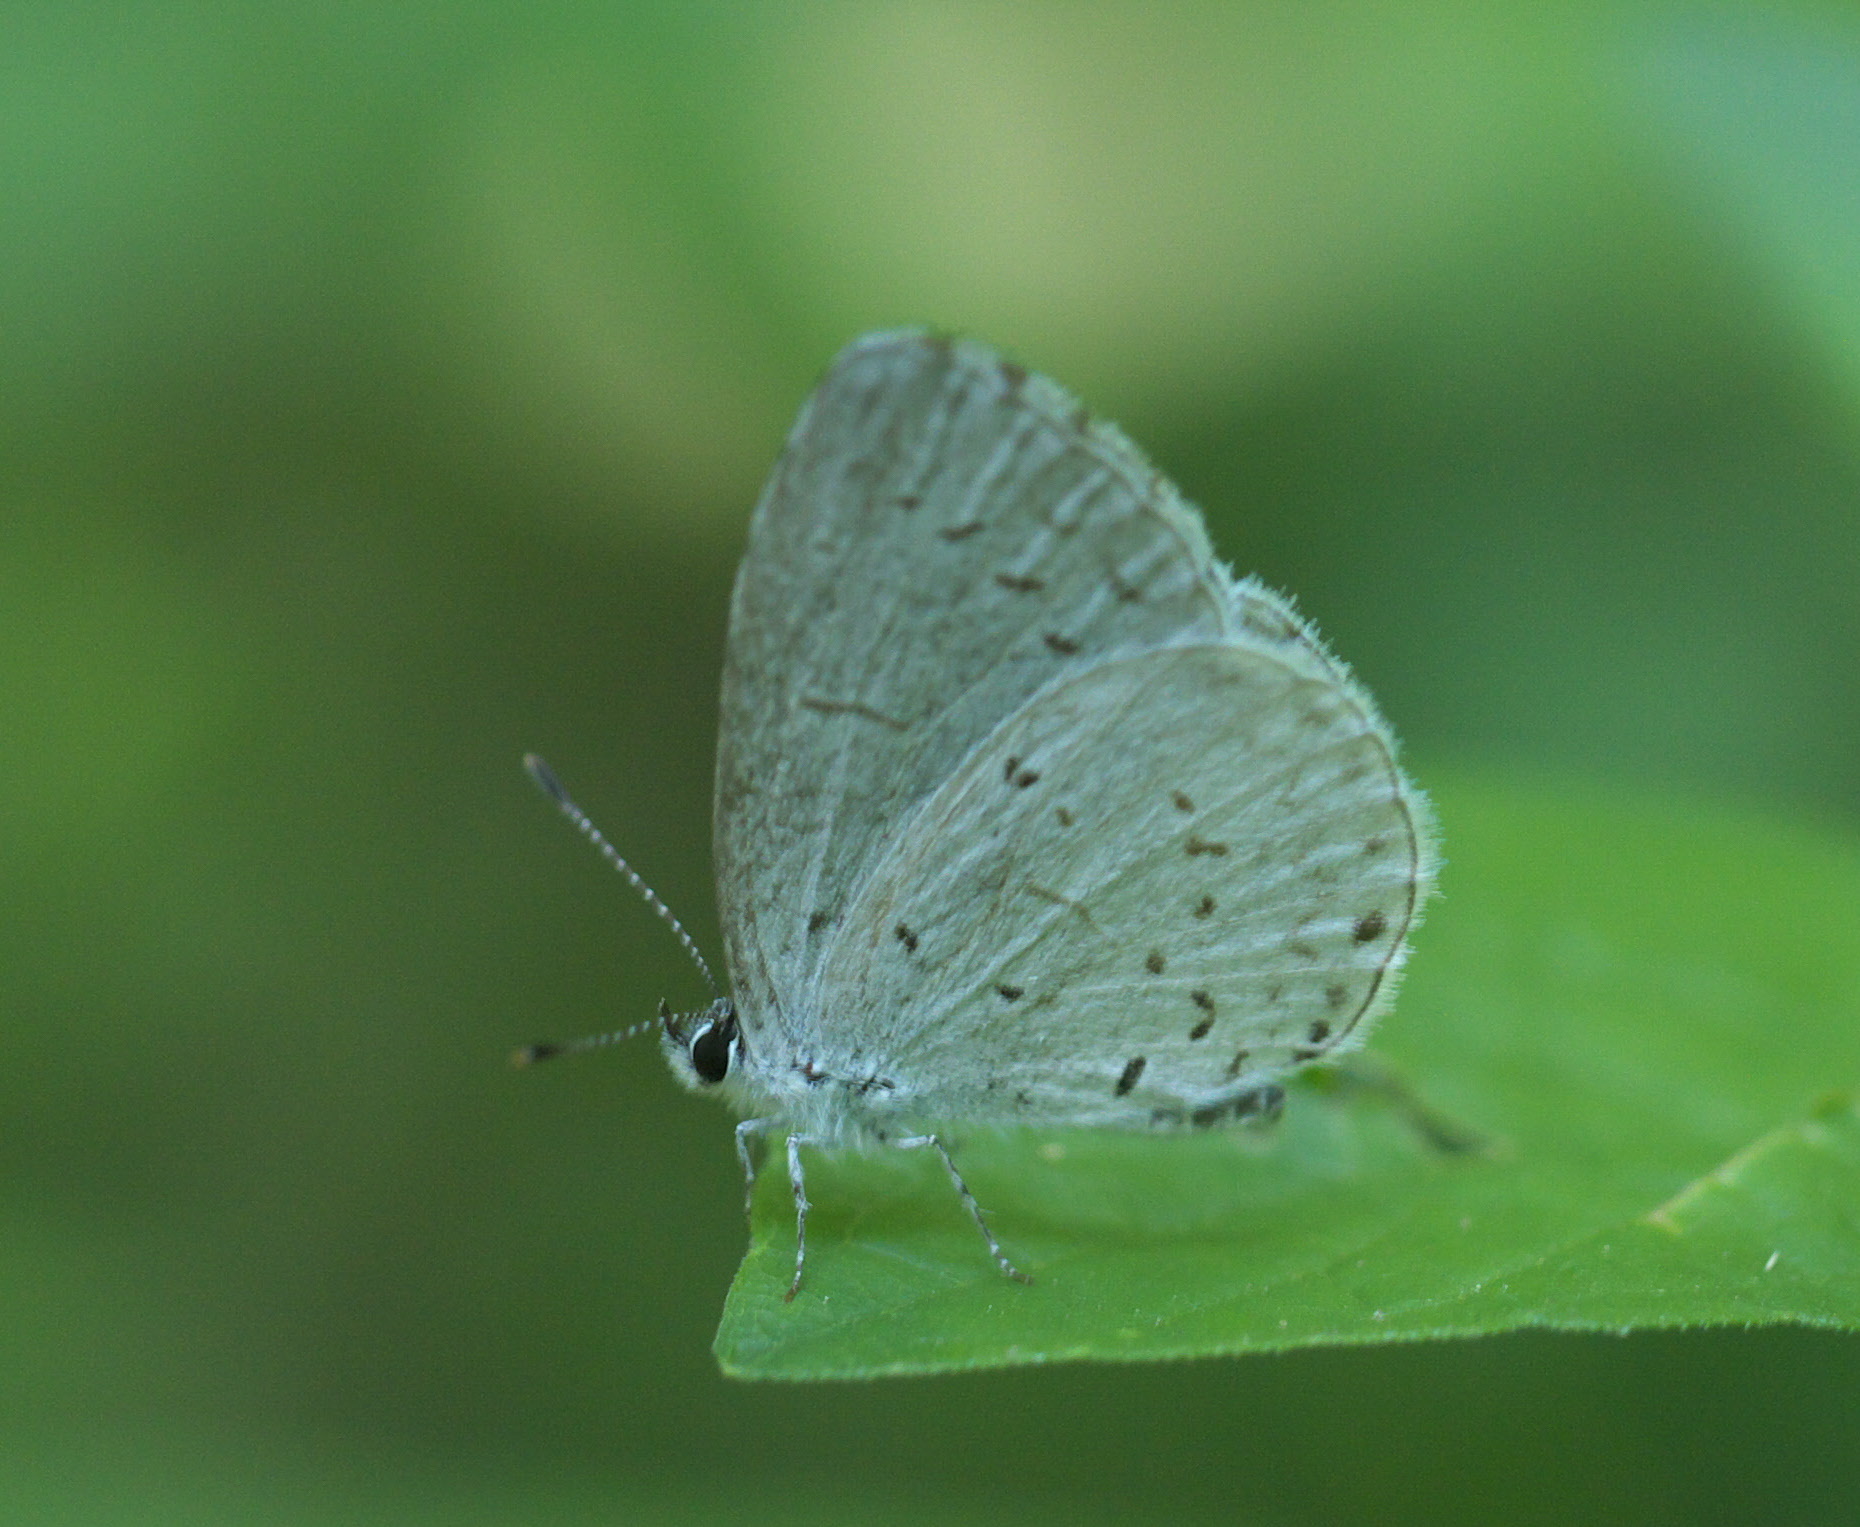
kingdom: Animalia
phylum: Arthropoda
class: Insecta
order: Lepidoptera
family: Lycaenidae
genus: Cyaniris
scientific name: Cyaniris neglecta
